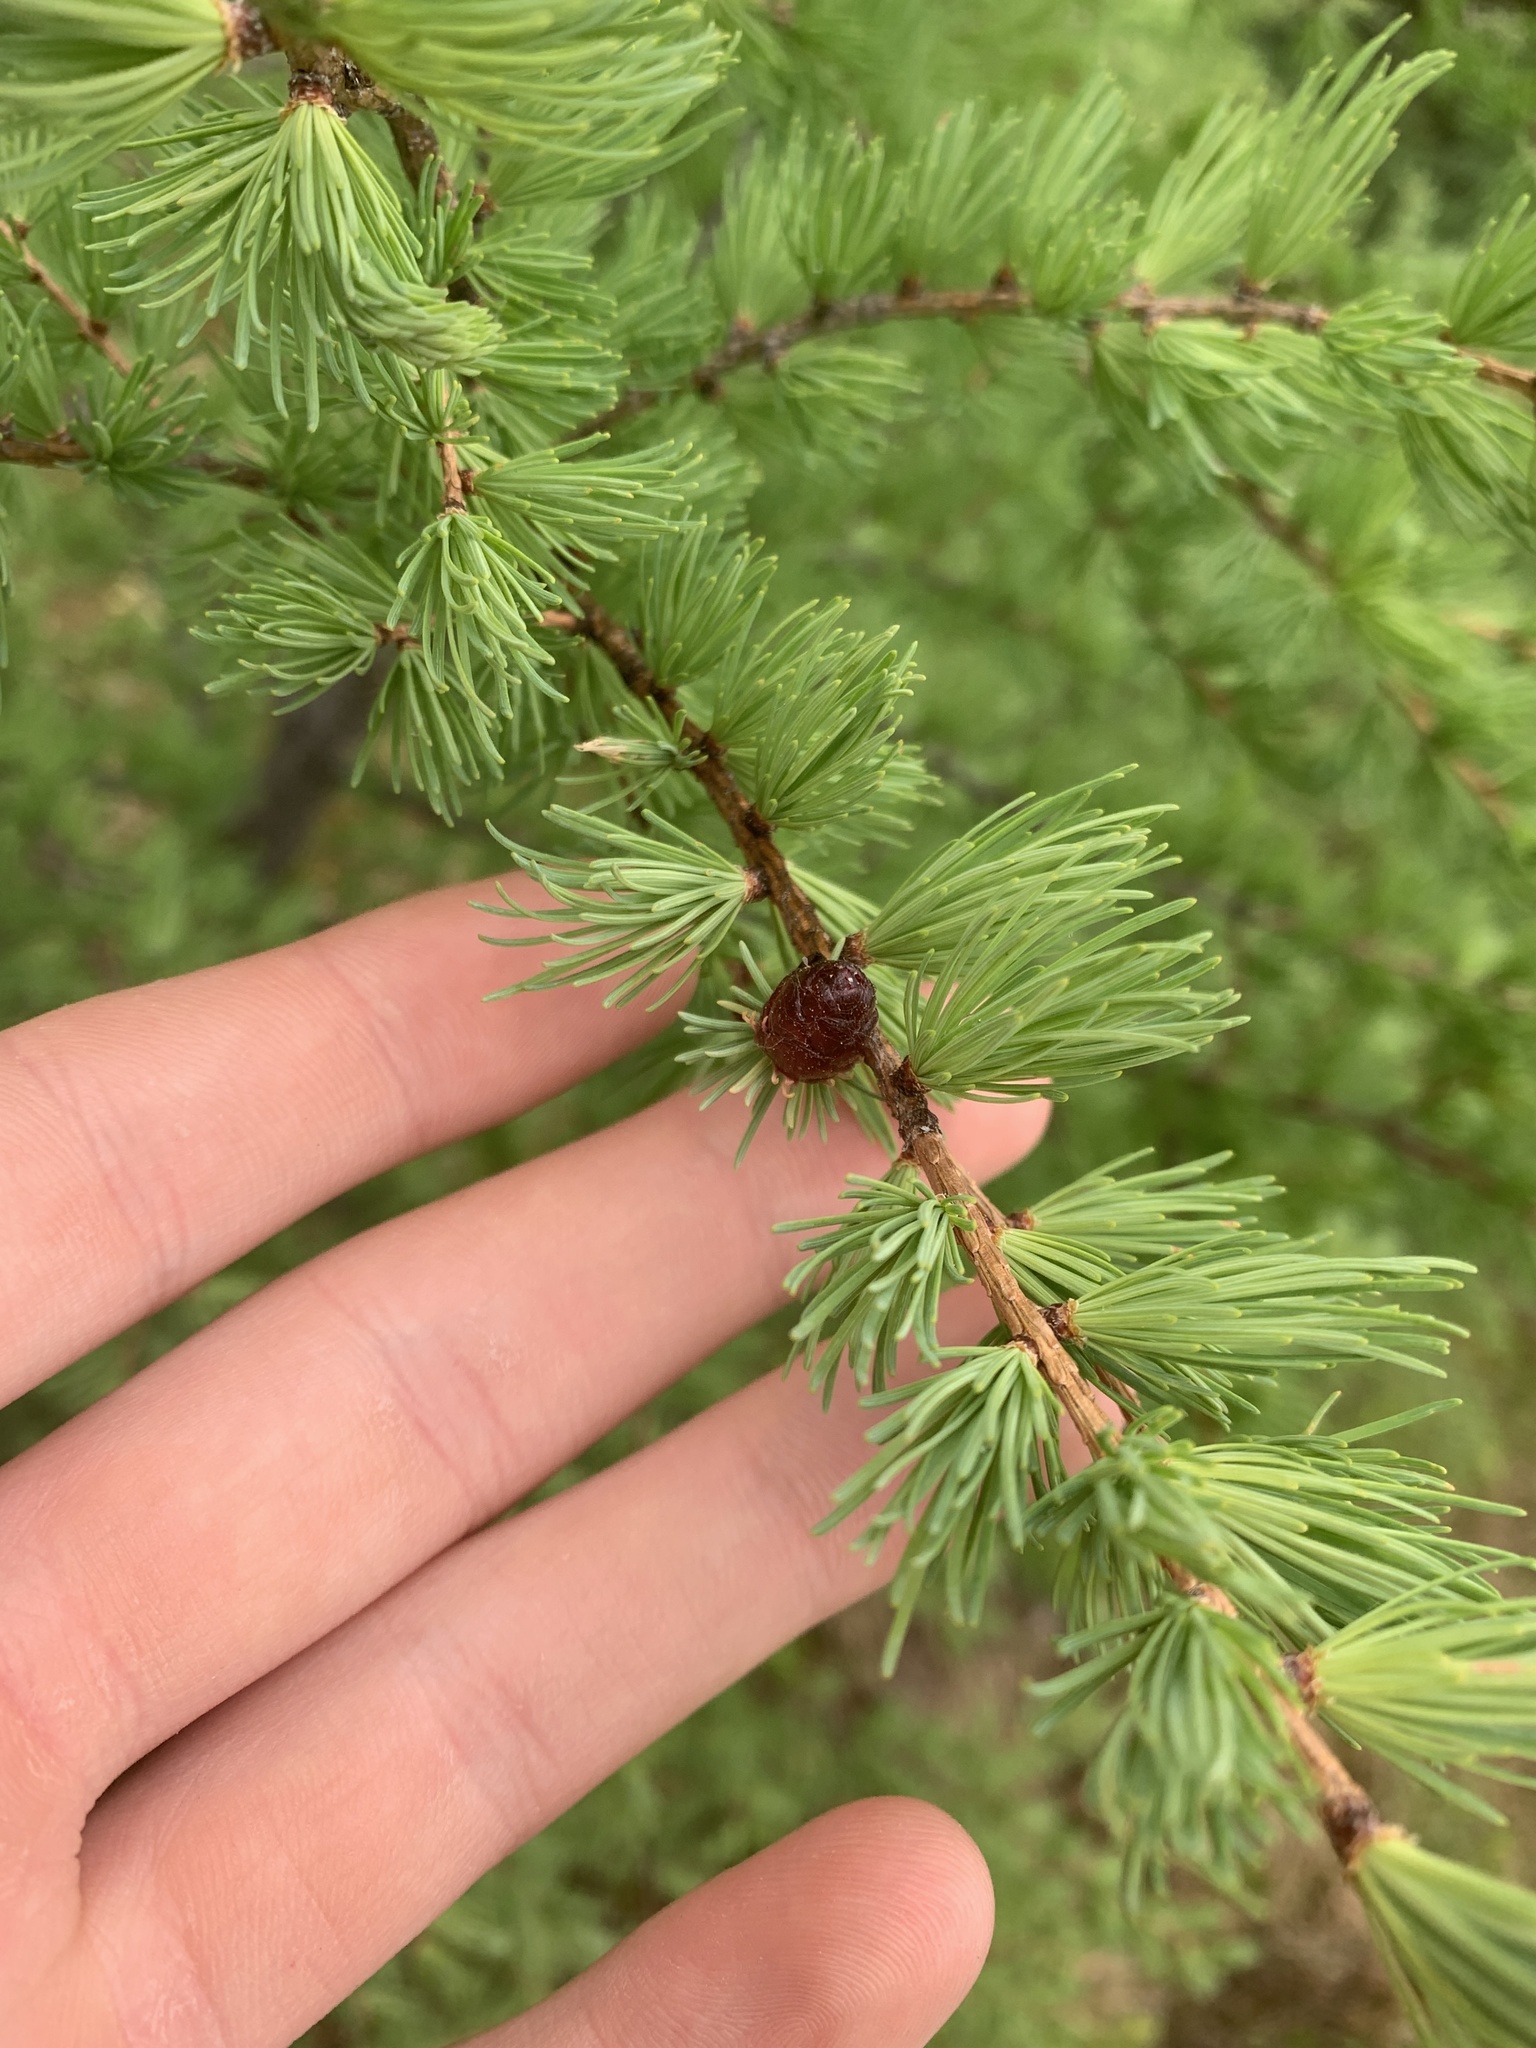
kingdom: Plantae
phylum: Tracheophyta
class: Pinopsida
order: Pinales
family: Pinaceae
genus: Larix
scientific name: Larix laricina
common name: American larch
